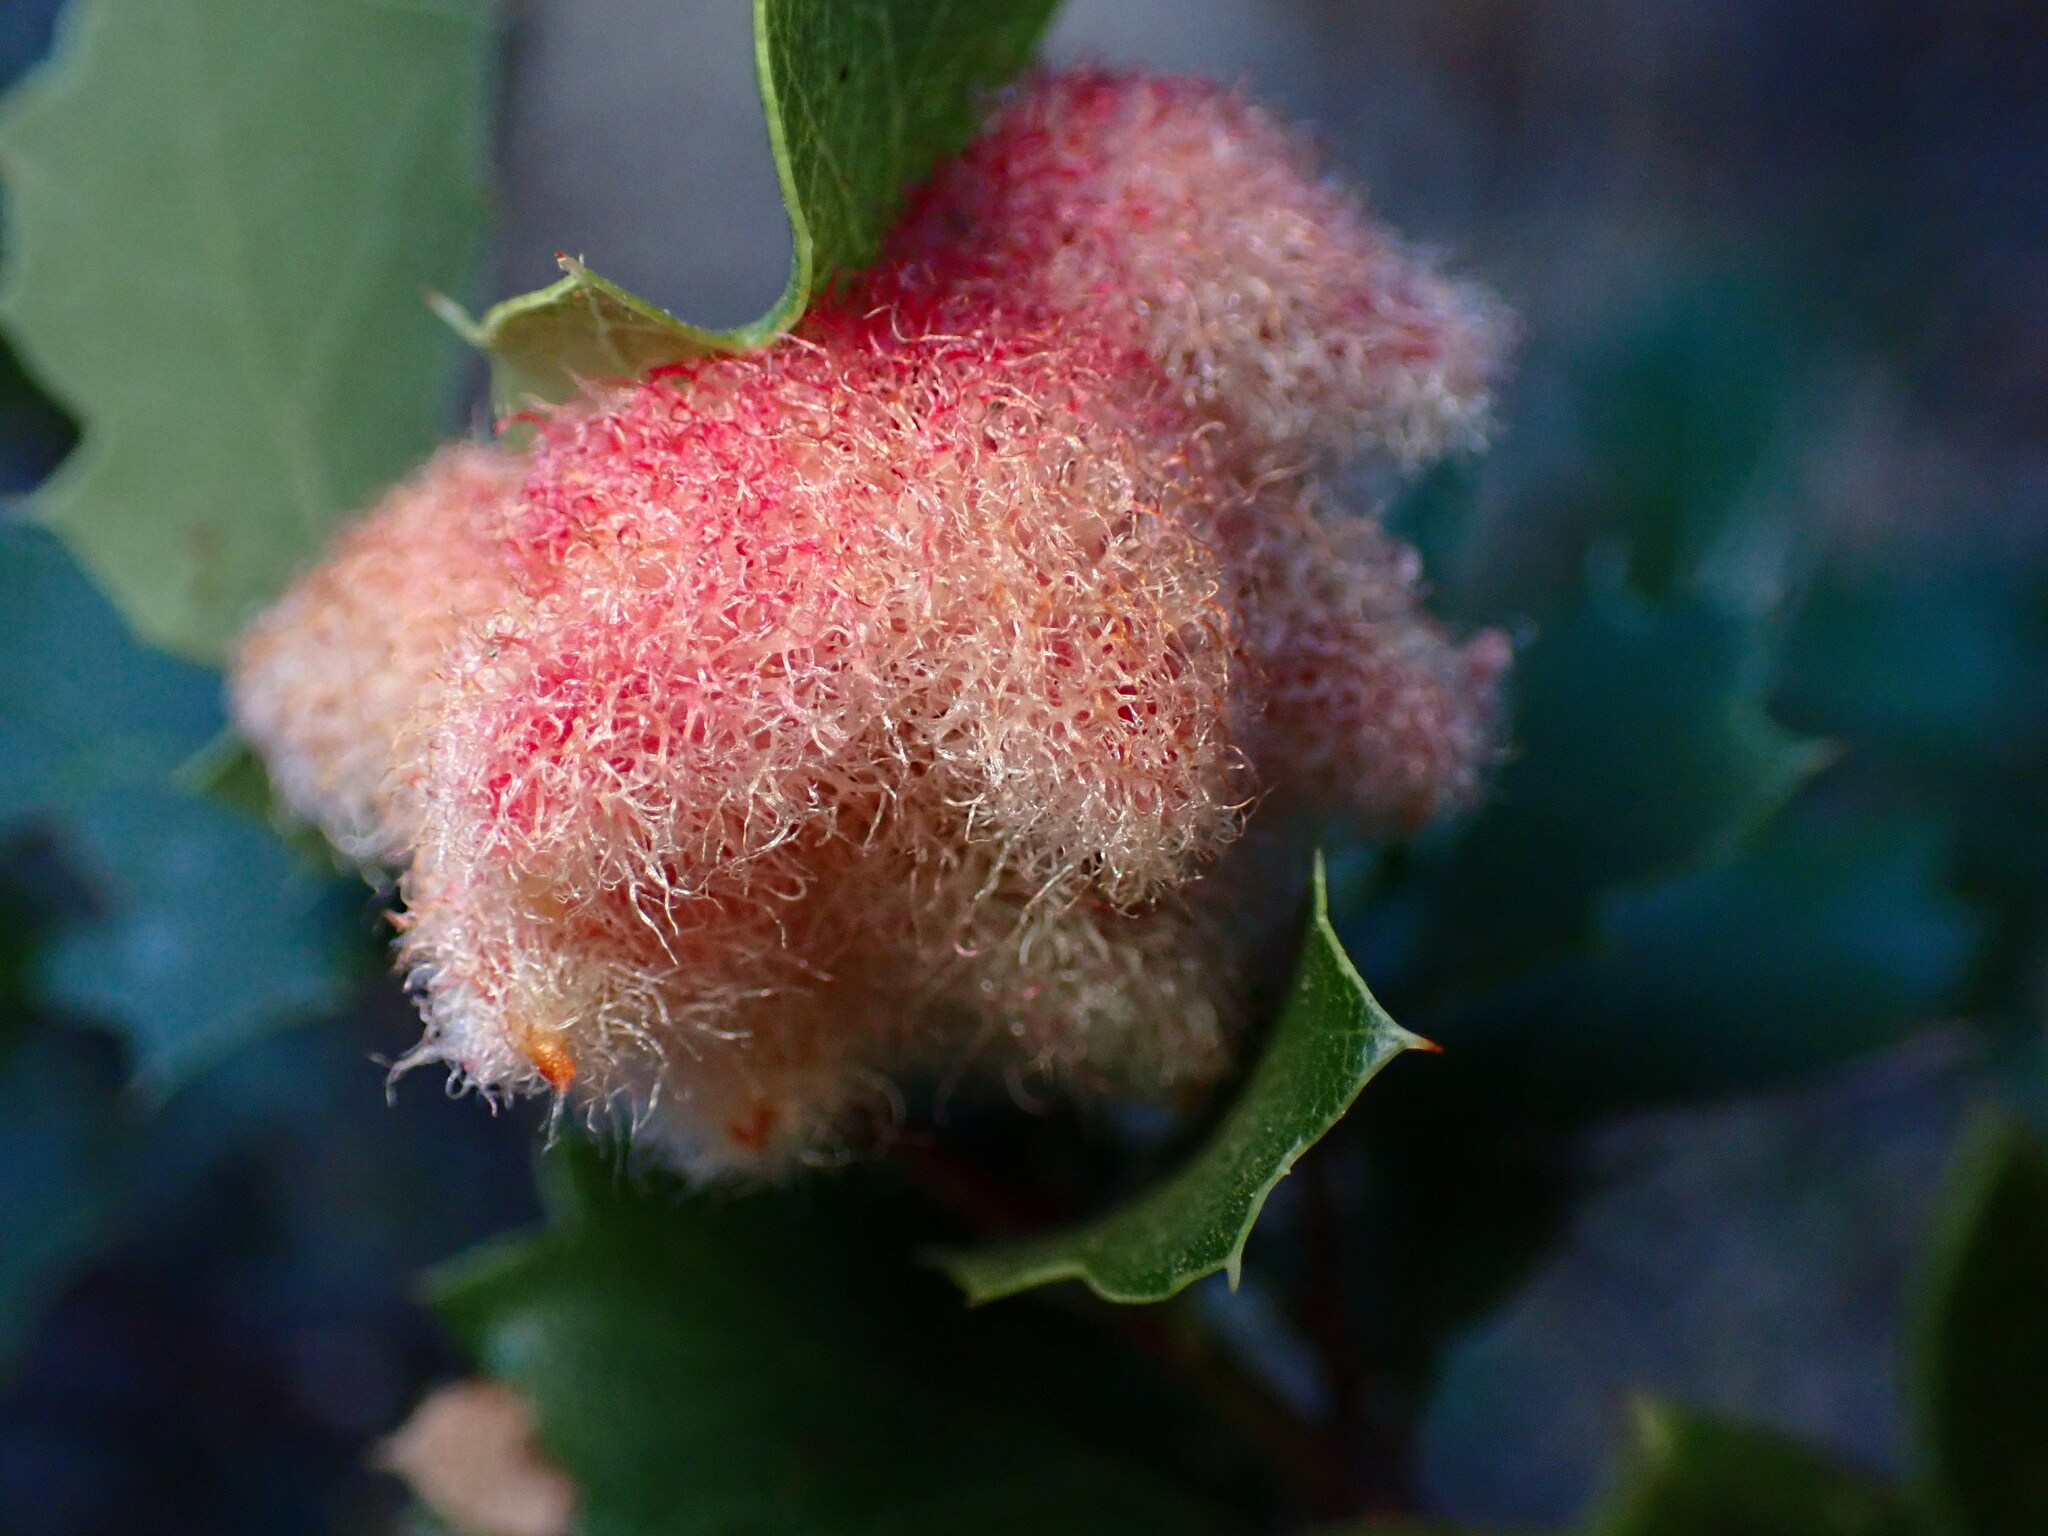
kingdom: Animalia
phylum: Arthropoda
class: Insecta
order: Hymenoptera
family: Cynipidae
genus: Andricus
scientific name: Andricus
